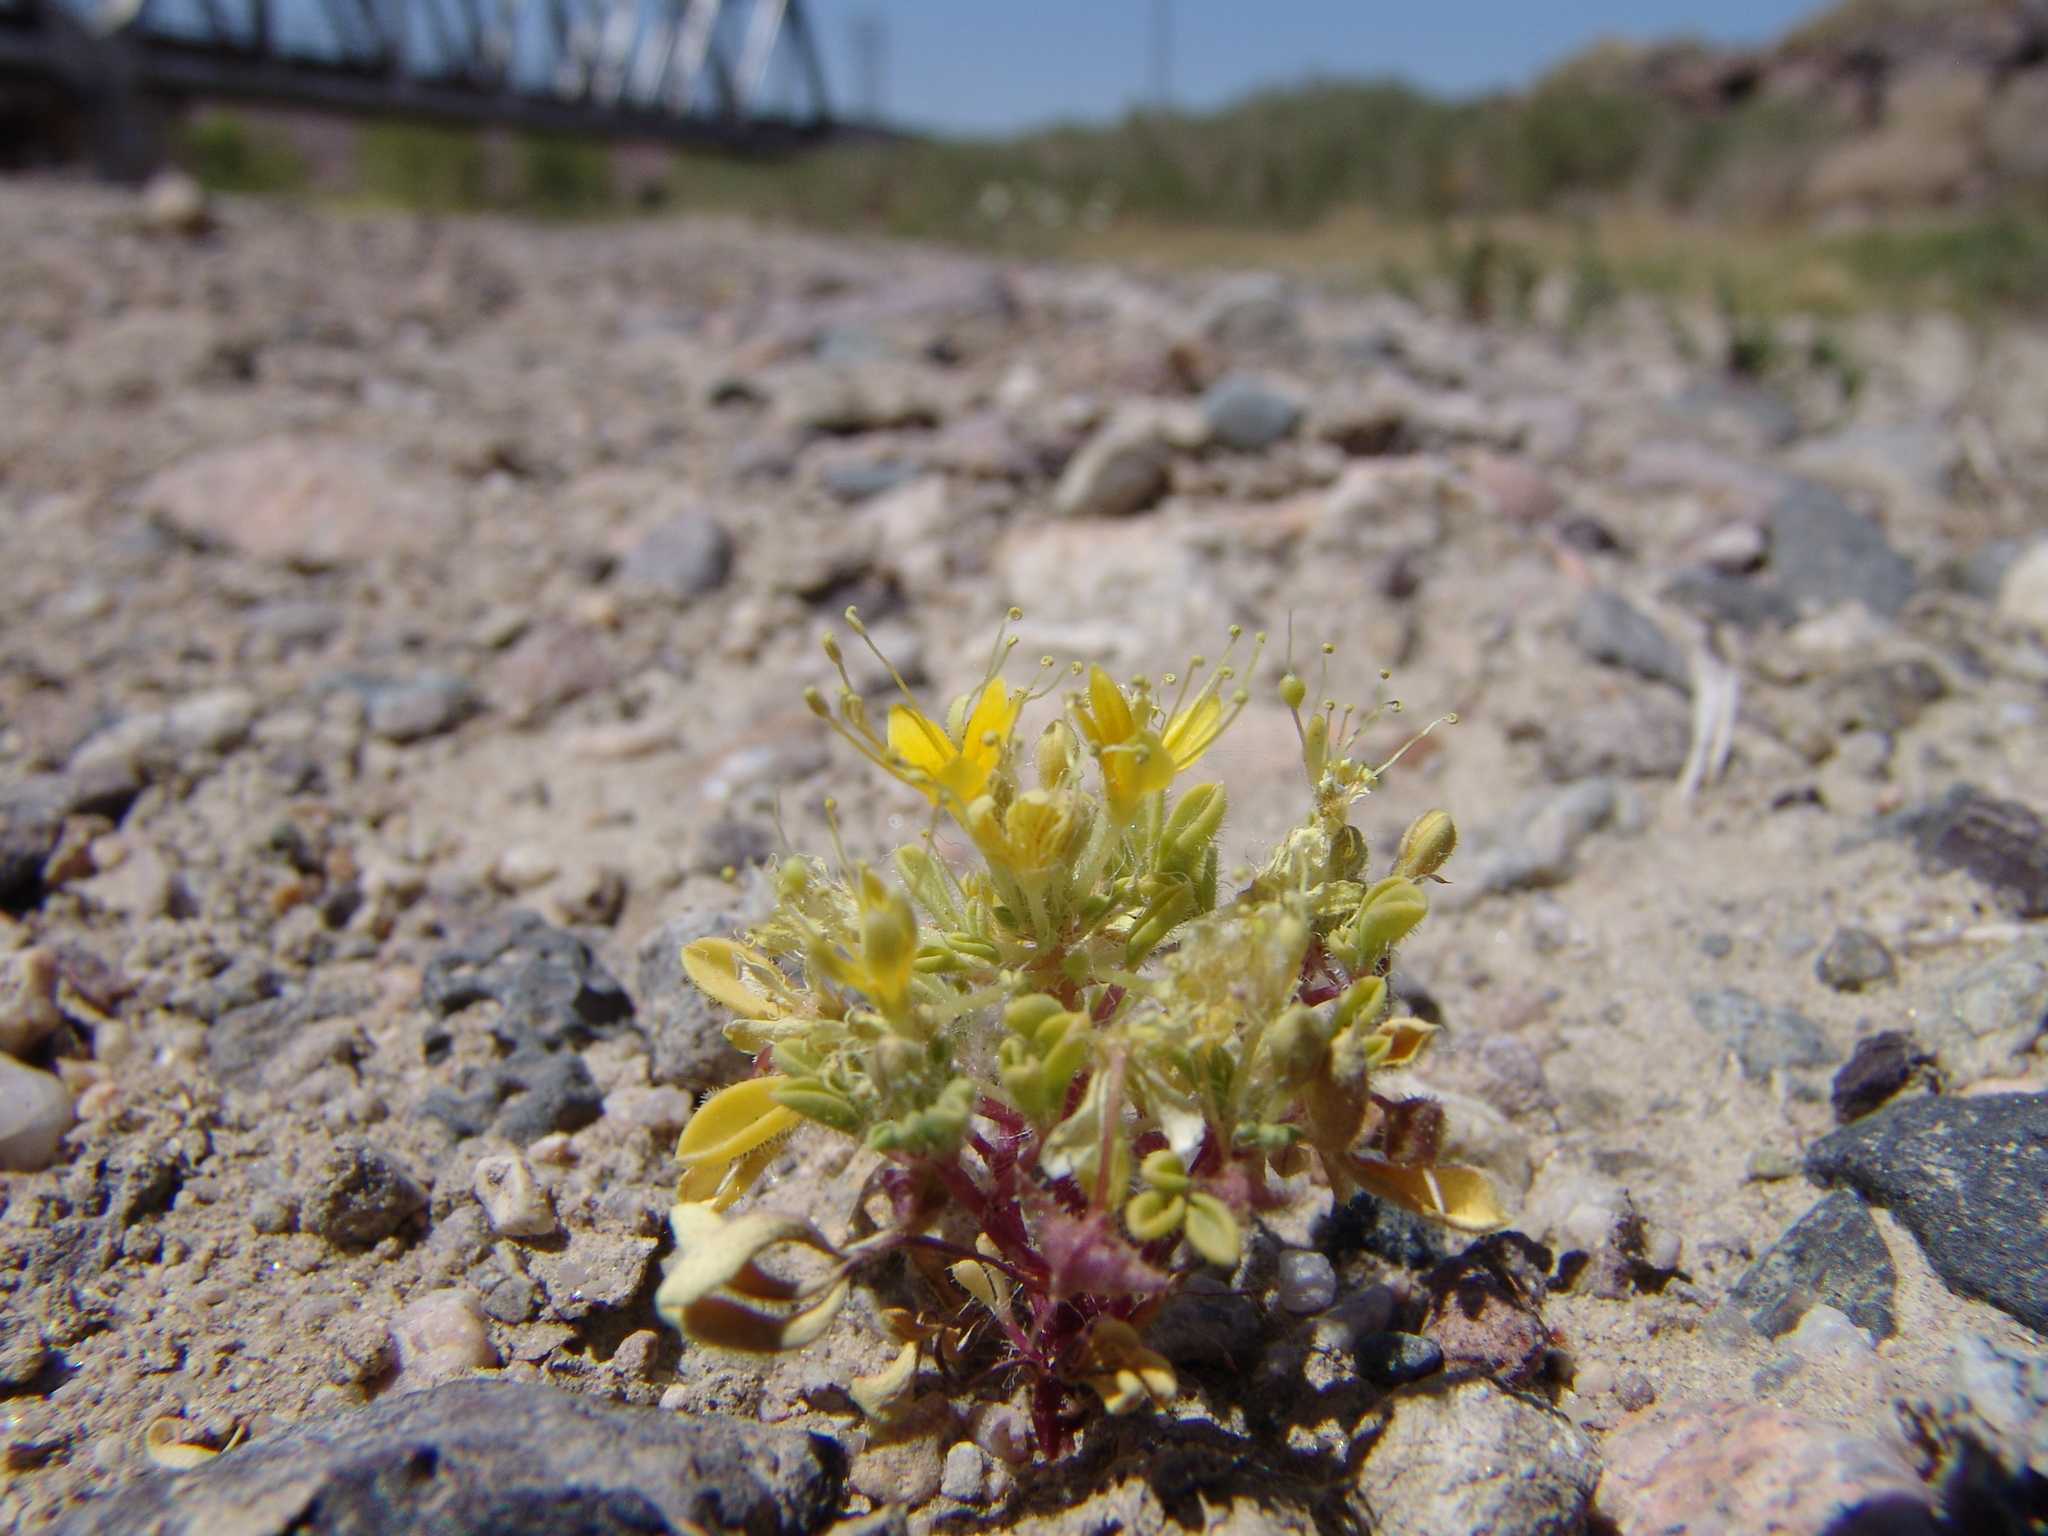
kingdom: Plantae
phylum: Tracheophyta
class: Magnoliopsida
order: Brassicales
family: Cleomaceae
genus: Cleomella
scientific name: Cleomella obtusifolia
